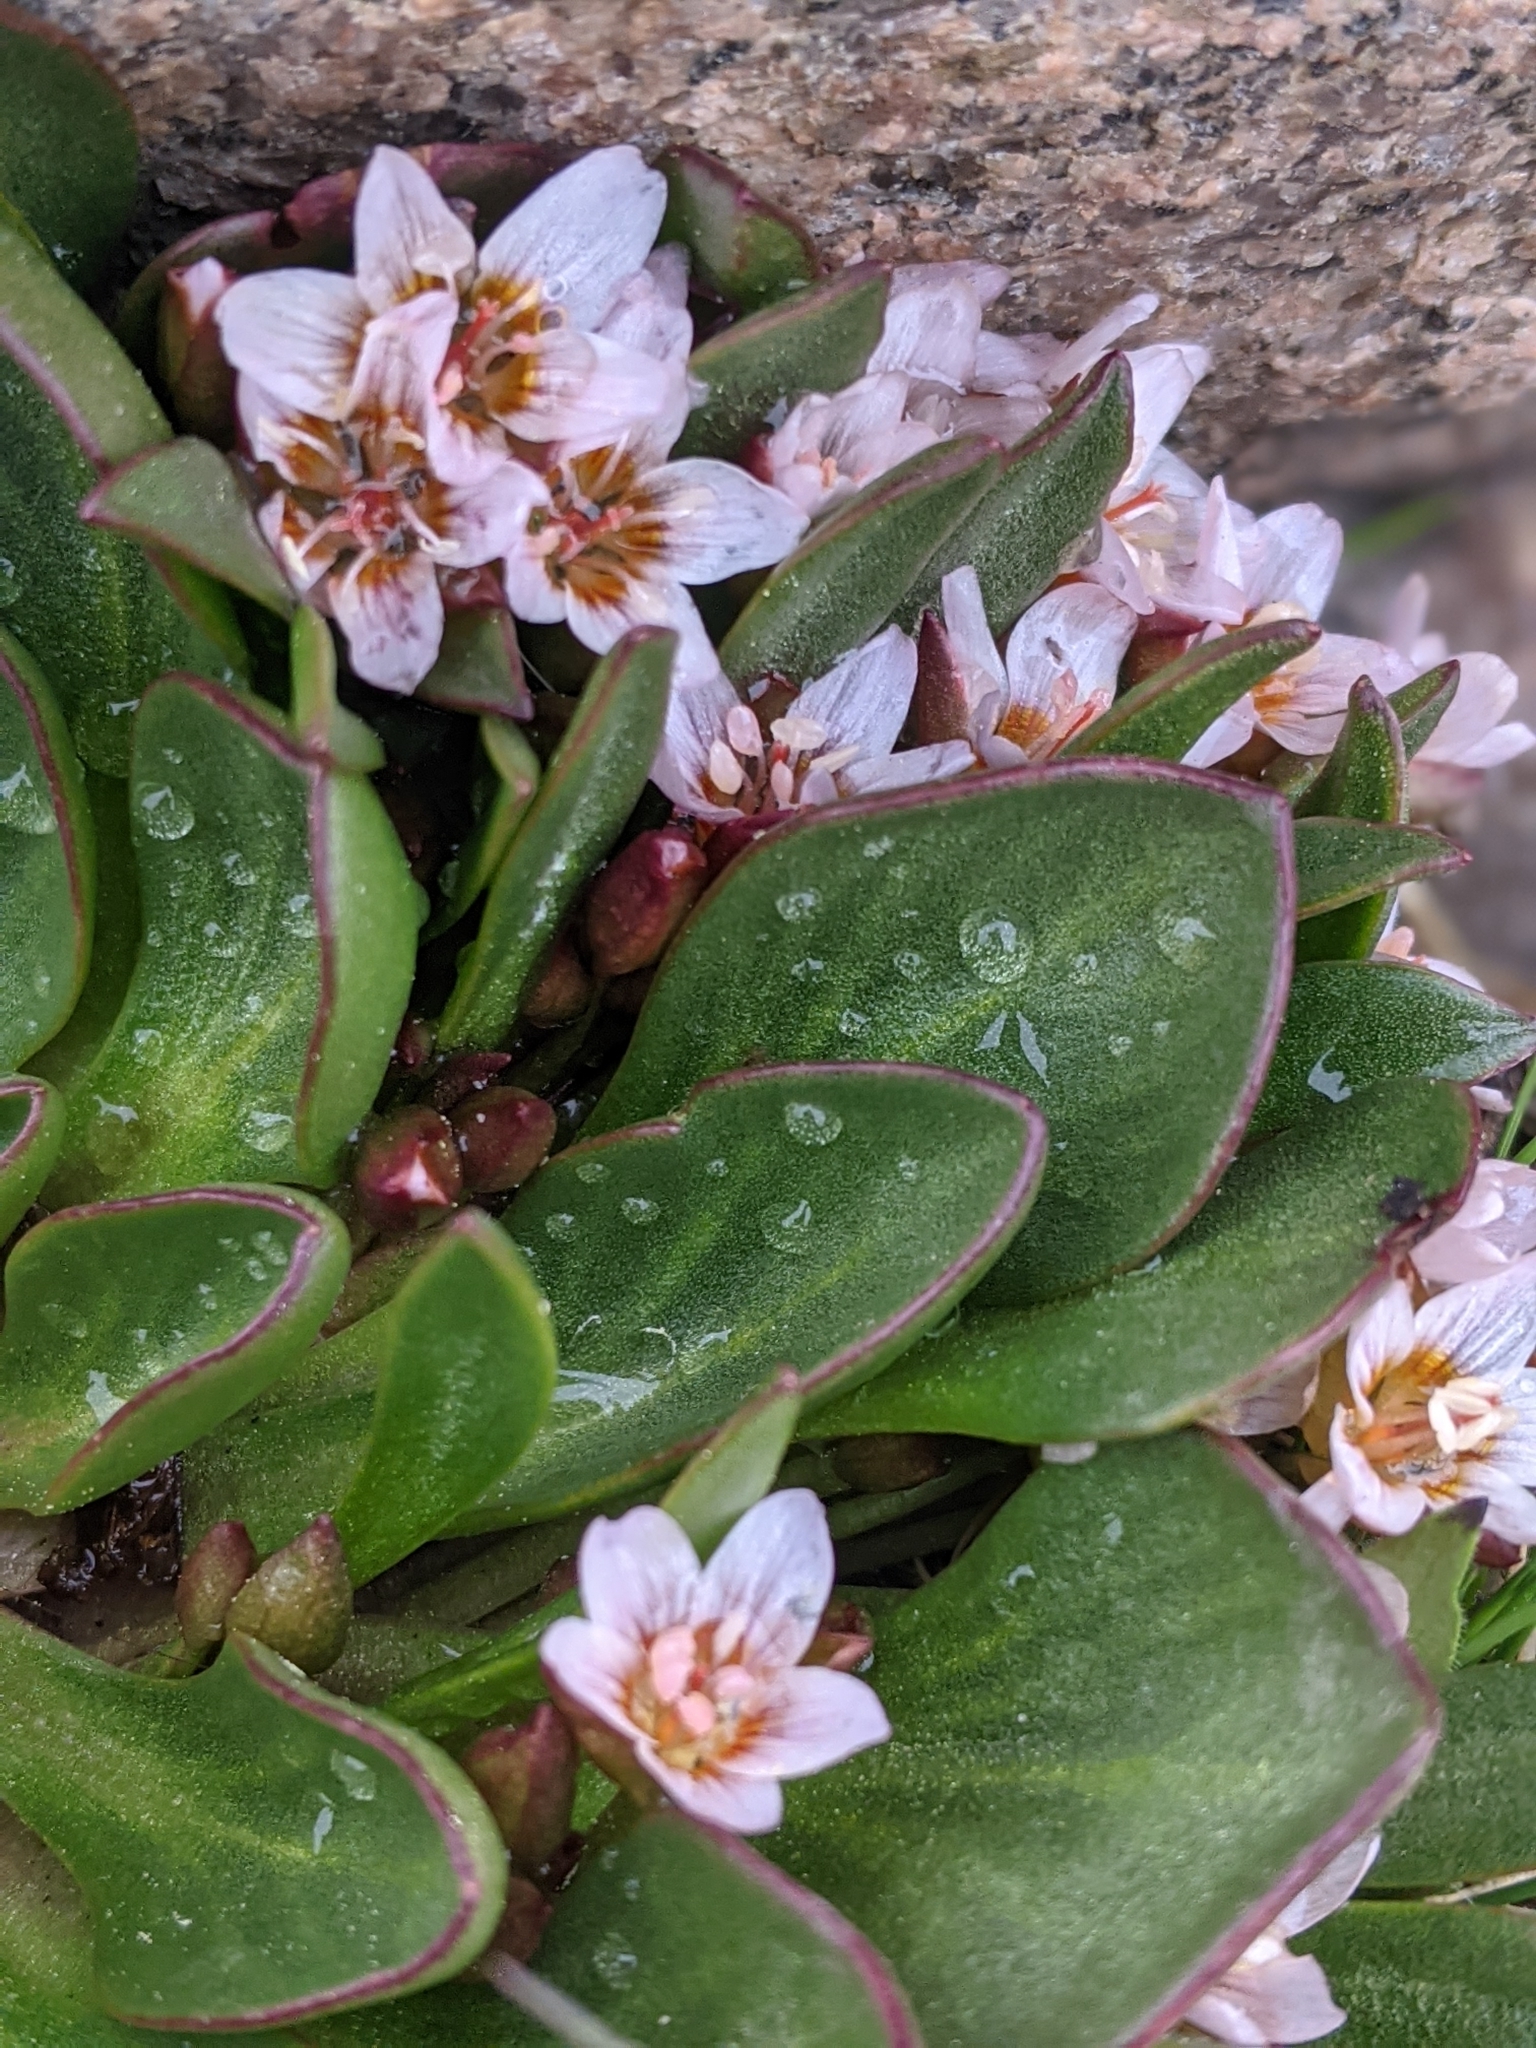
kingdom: Plantae
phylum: Tracheophyta
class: Magnoliopsida
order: Caryophyllales
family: Montiaceae
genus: Claytonia
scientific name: Claytonia megarhiza
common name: Alpine spring beauty
